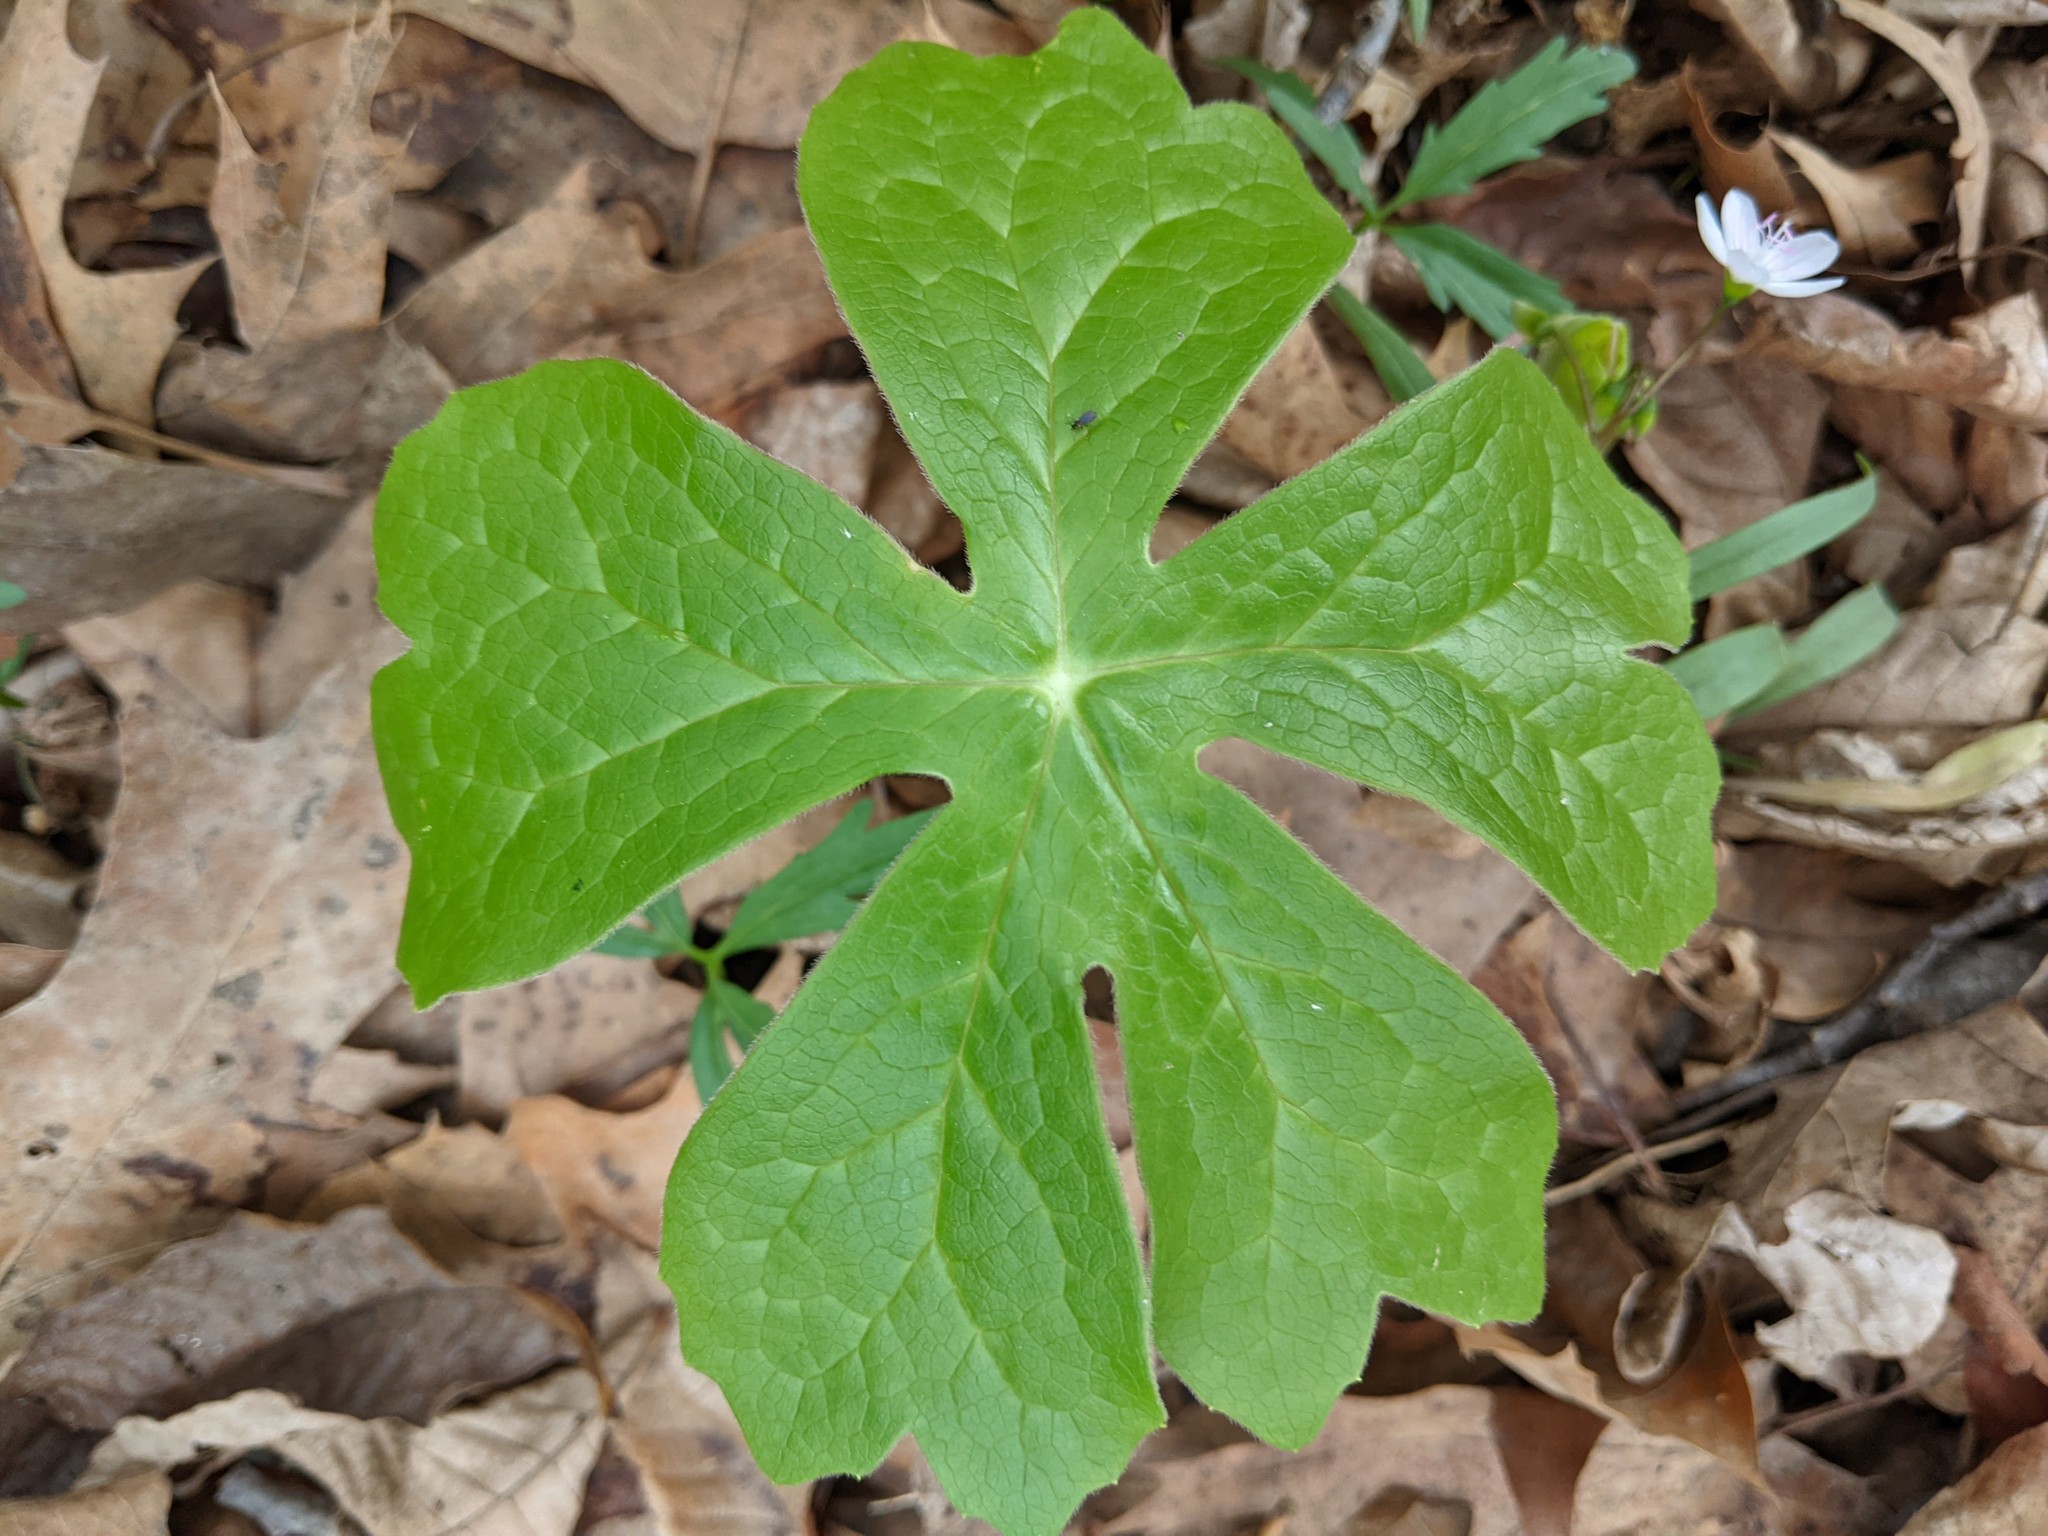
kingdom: Plantae
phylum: Tracheophyta
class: Magnoliopsida
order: Ranunculales
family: Berberidaceae
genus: Podophyllum
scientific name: Podophyllum peltatum
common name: Wild mandrake
